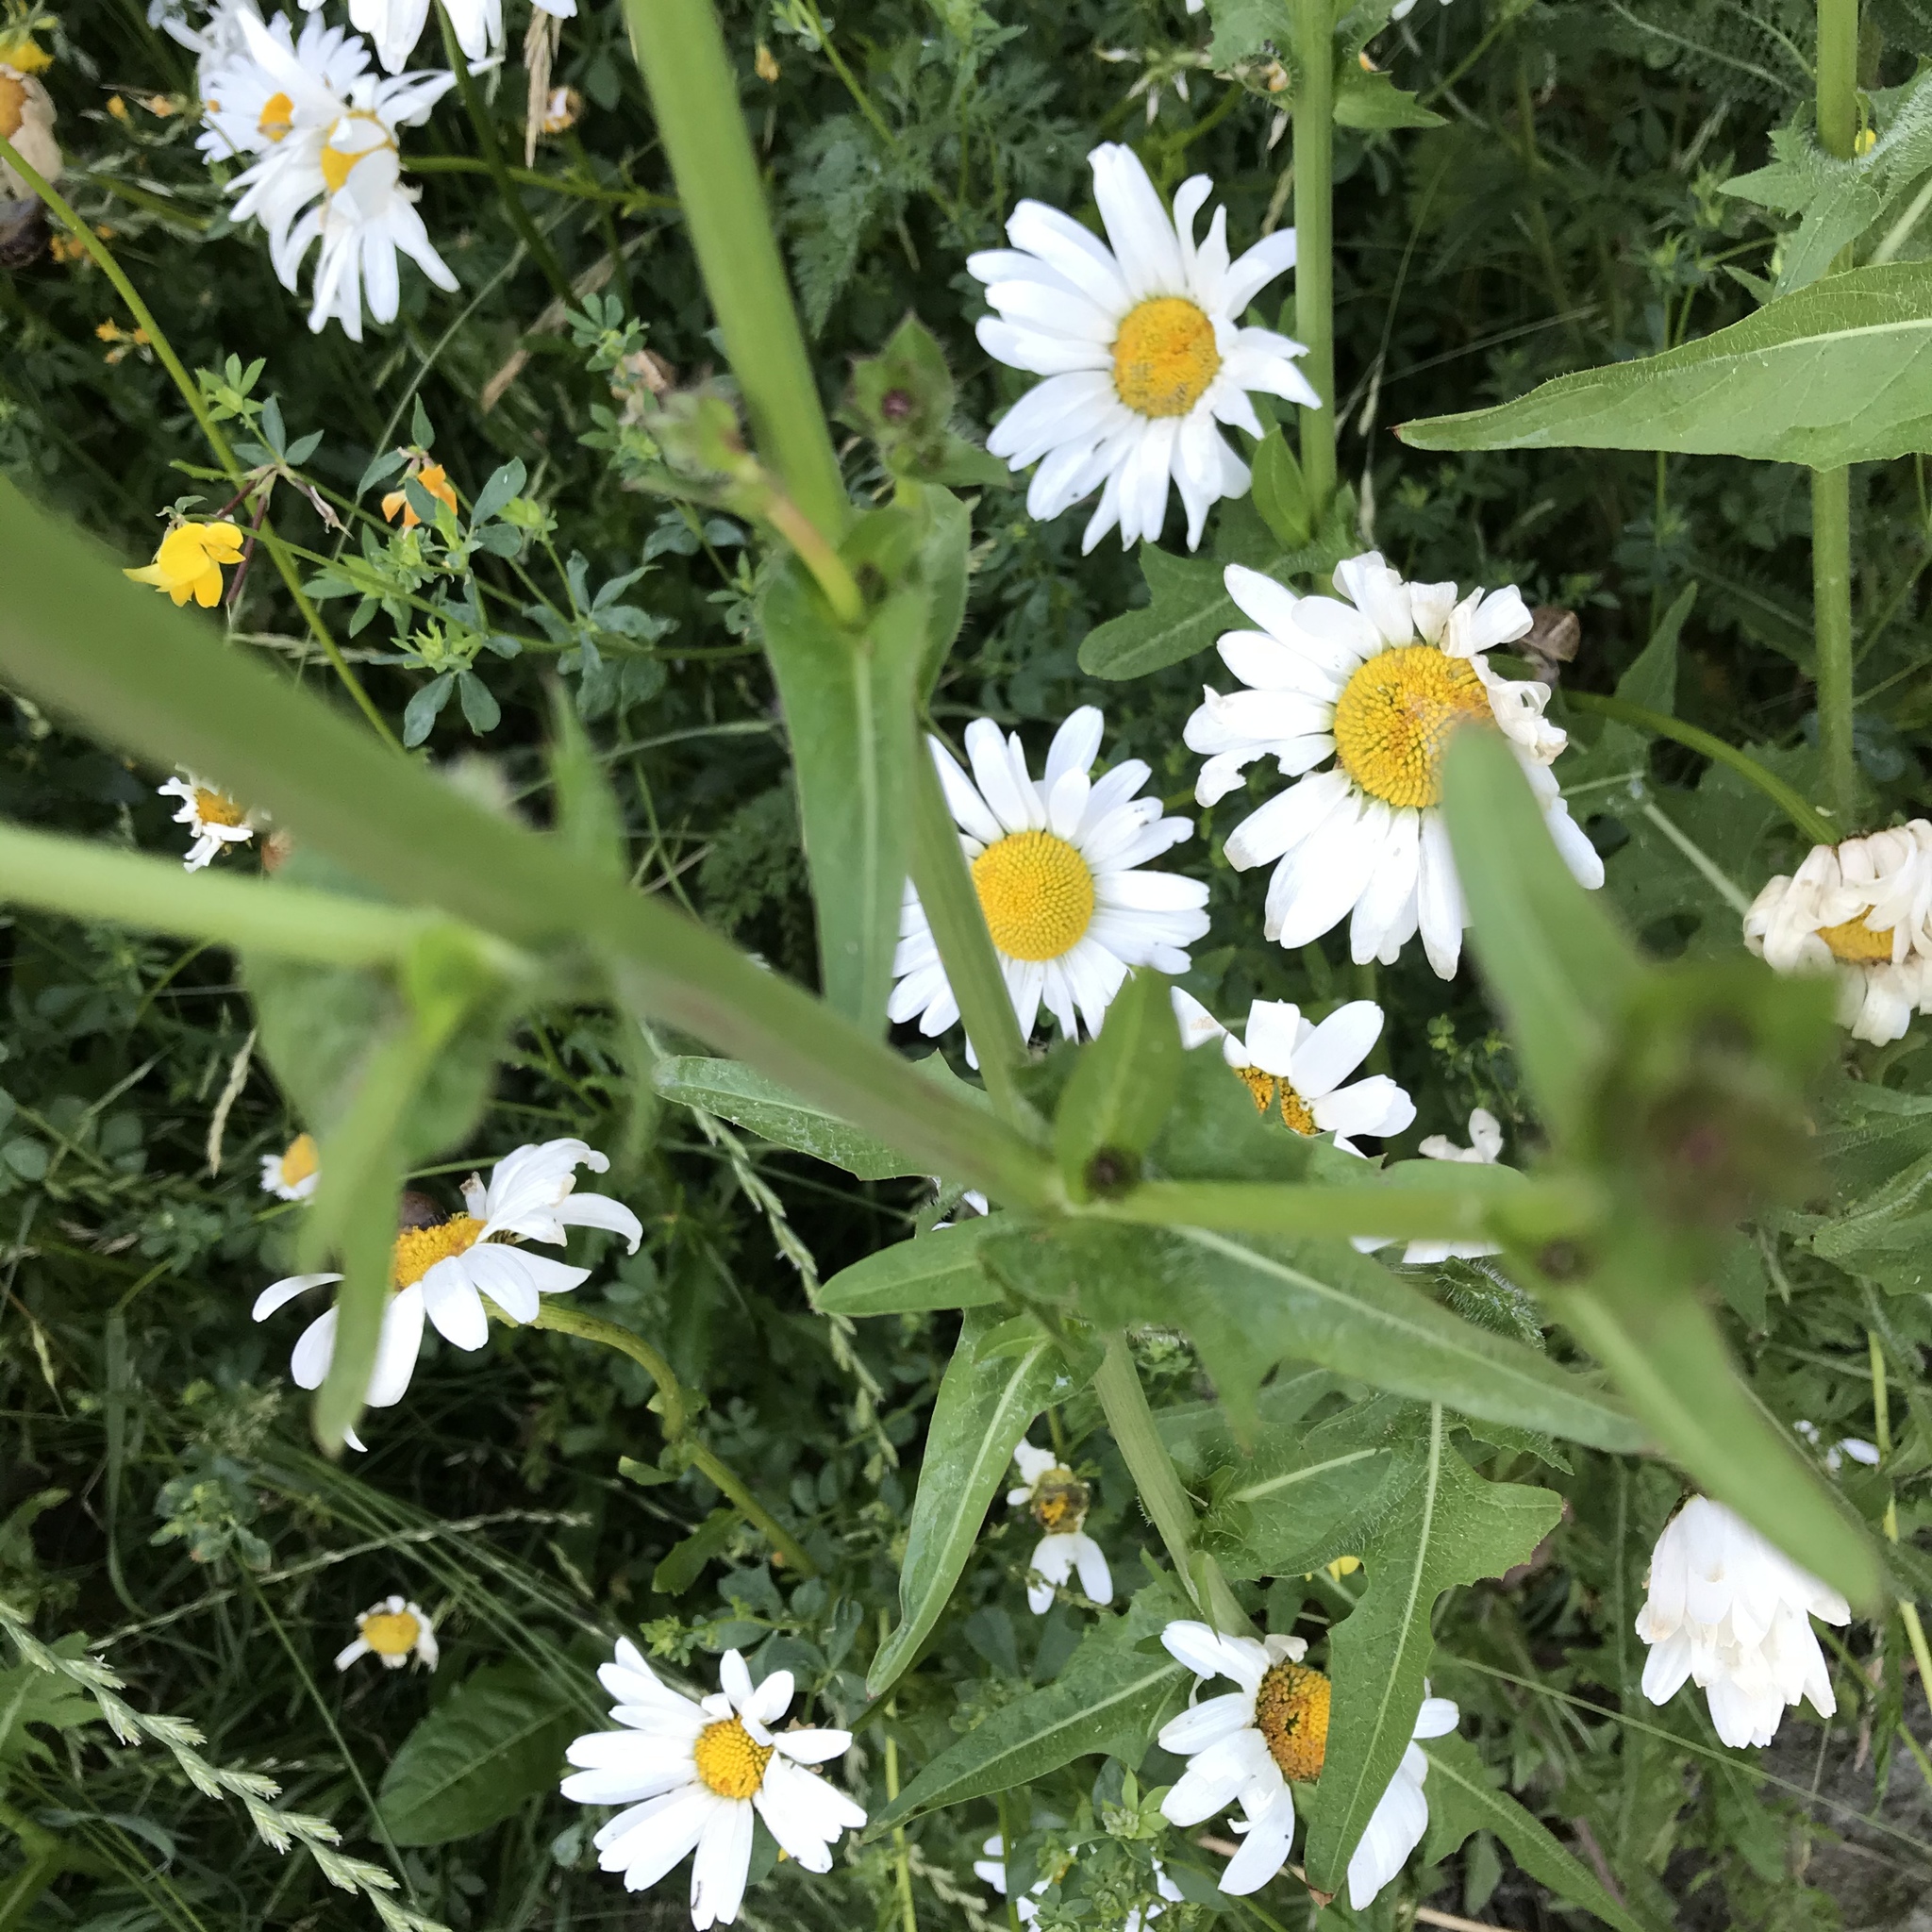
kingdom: Plantae
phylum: Tracheophyta
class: Magnoliopsida
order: Asterales
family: Asteraceae
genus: Cichorium
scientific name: Cichorium intybus
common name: Chicory
